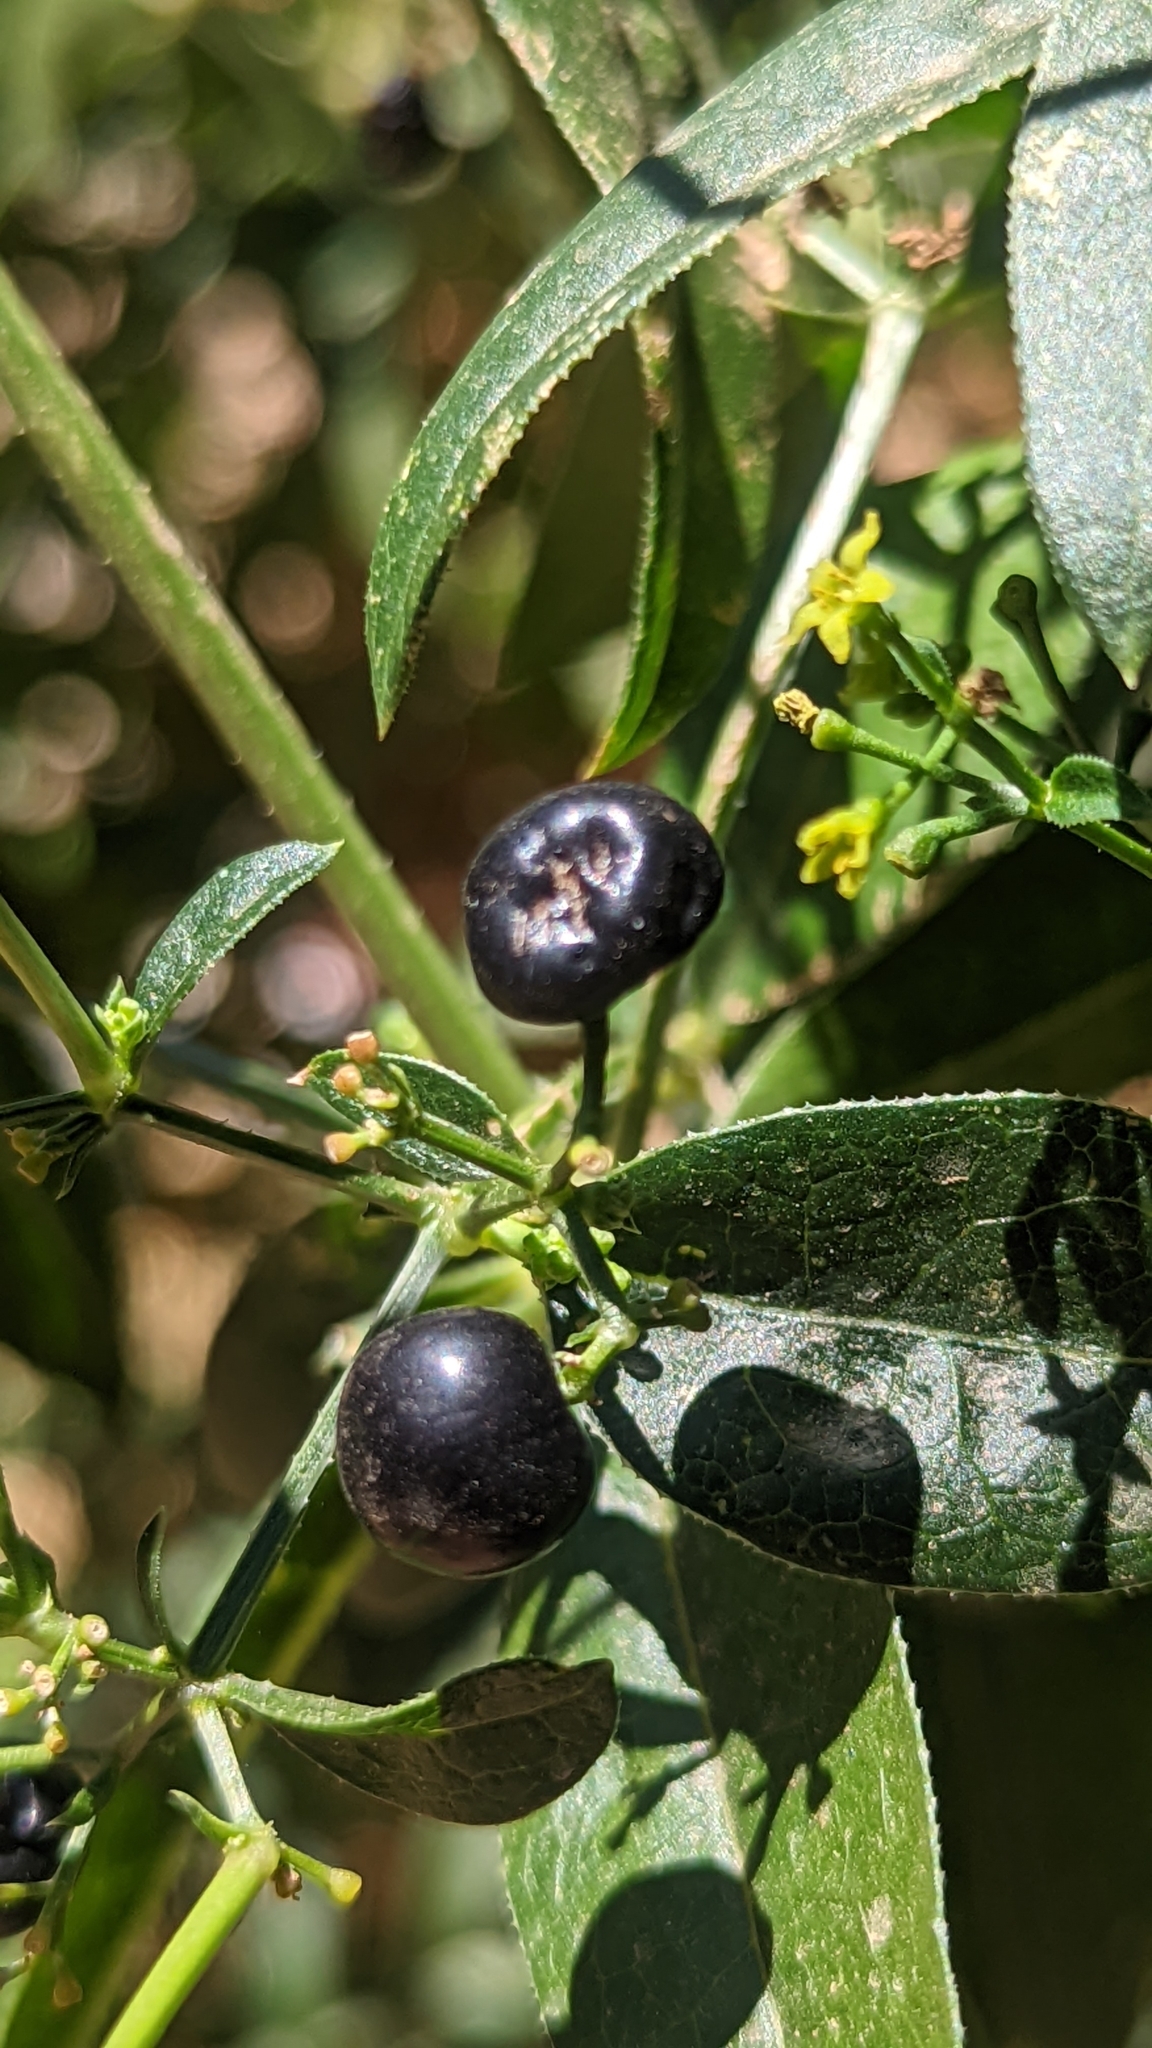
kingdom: Plantae
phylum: Tracheophyta
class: Magnoliopsida
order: Gentianales
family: Rubiaceae
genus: Rubia
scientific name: Rubia tinctorum
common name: Dyer's madder
